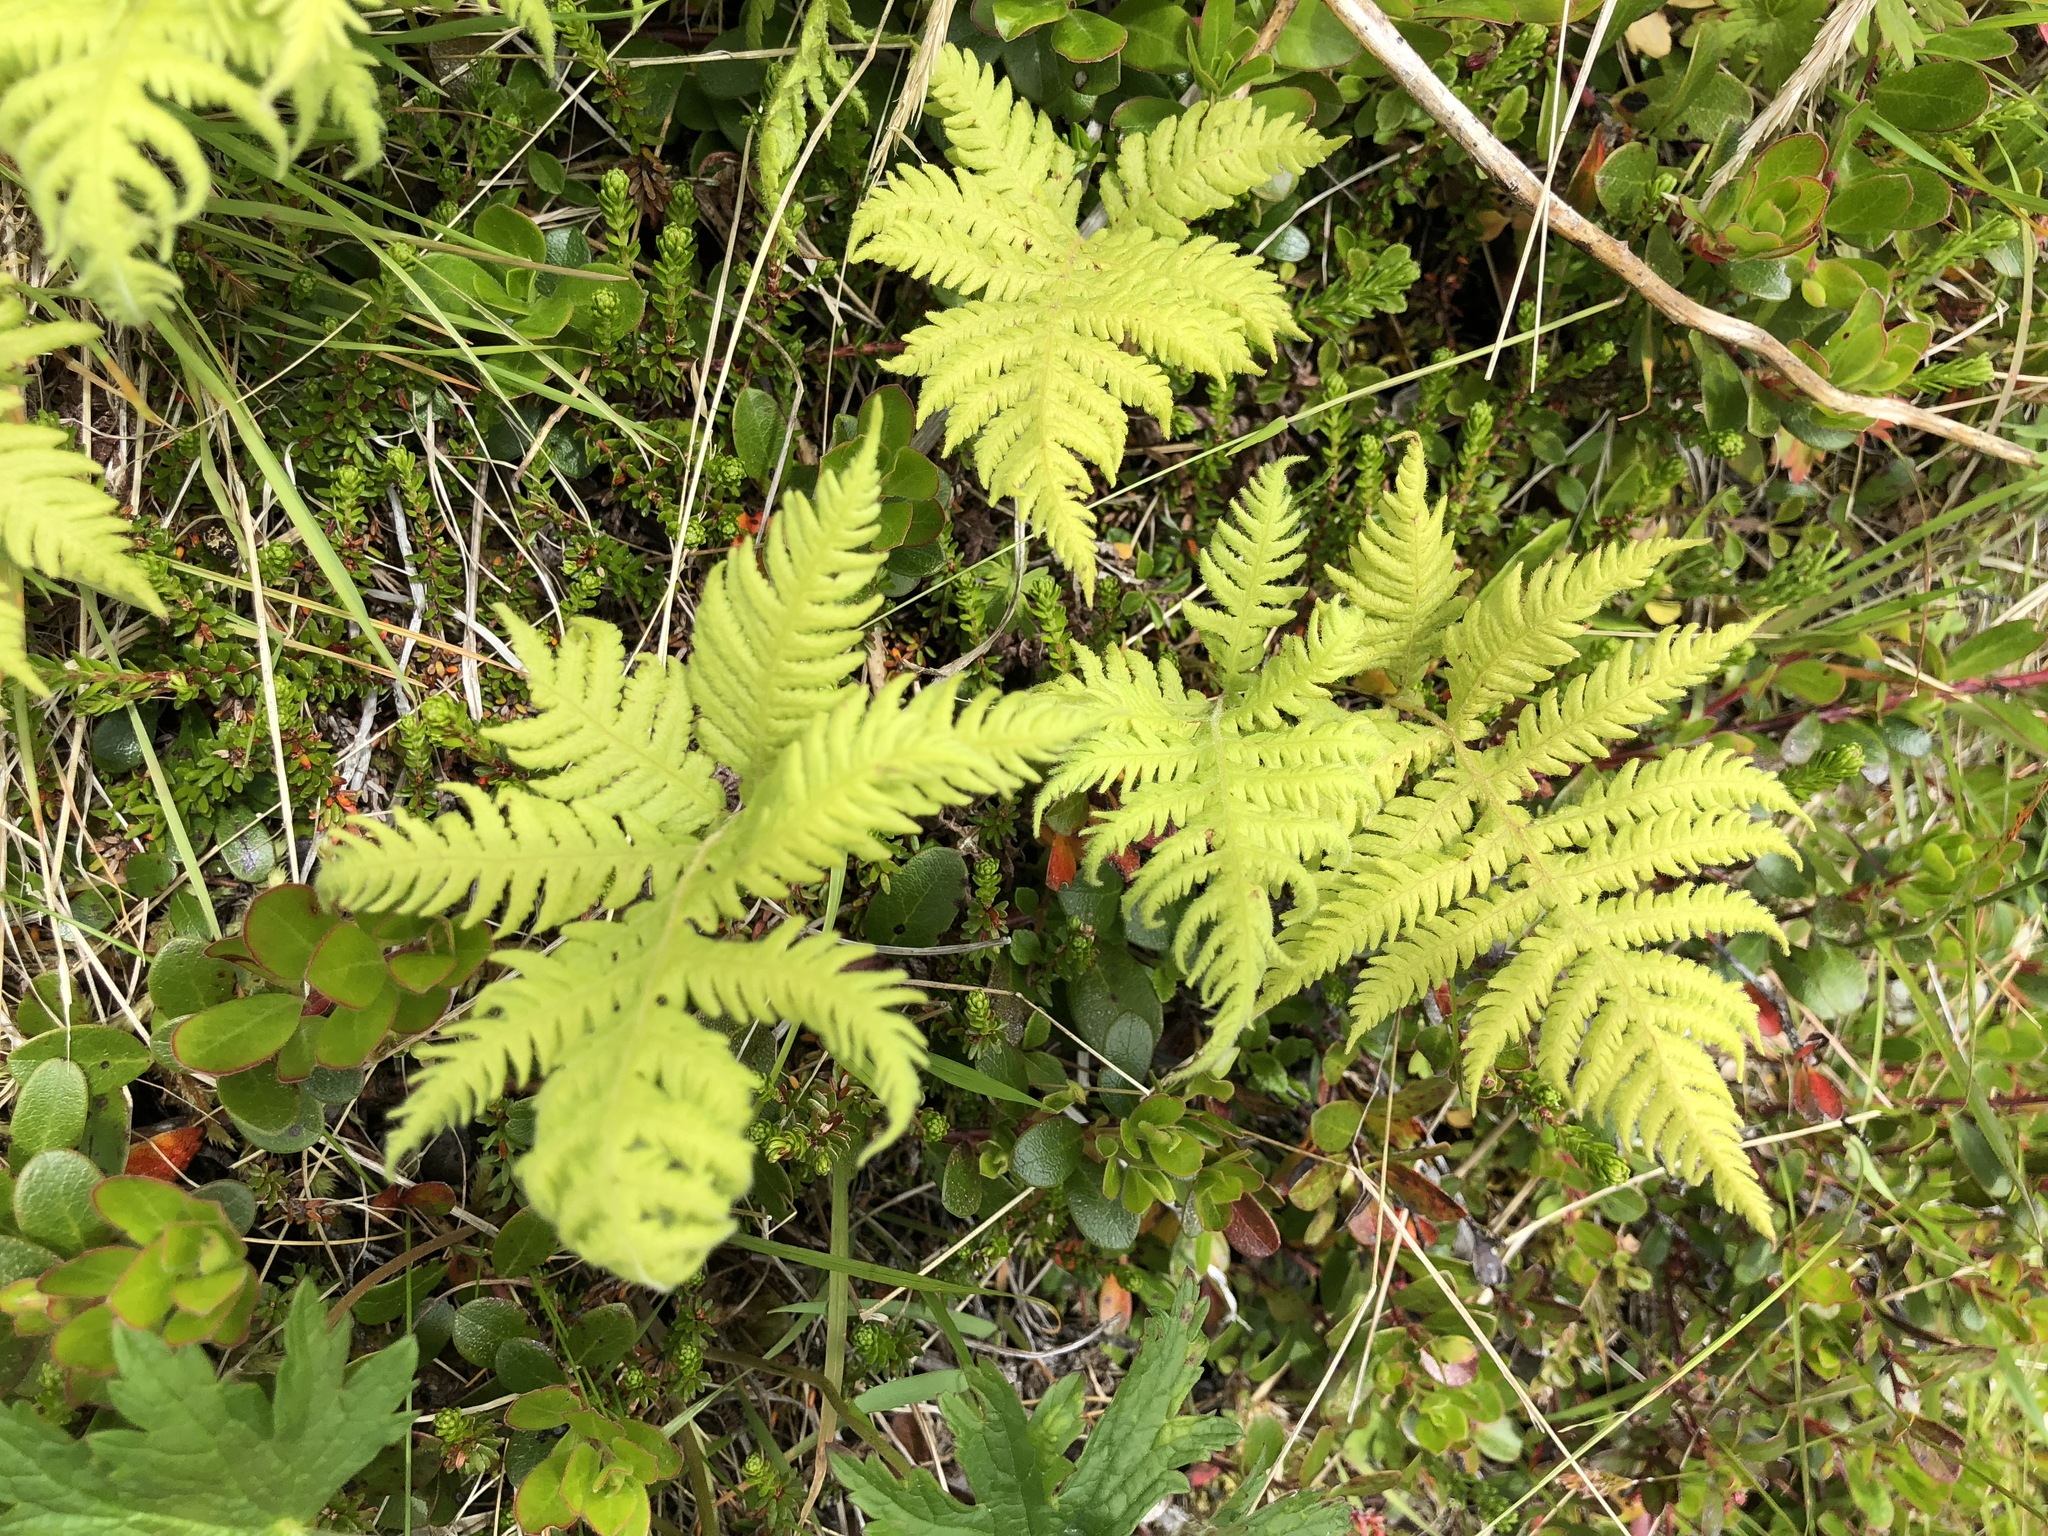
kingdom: Plantae
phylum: Tracheophyta
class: Polypodiopsida
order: Polypodiales
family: Thelypteridaceae
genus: Phegopteris
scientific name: Phegopteris connectilis
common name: Beech fern
